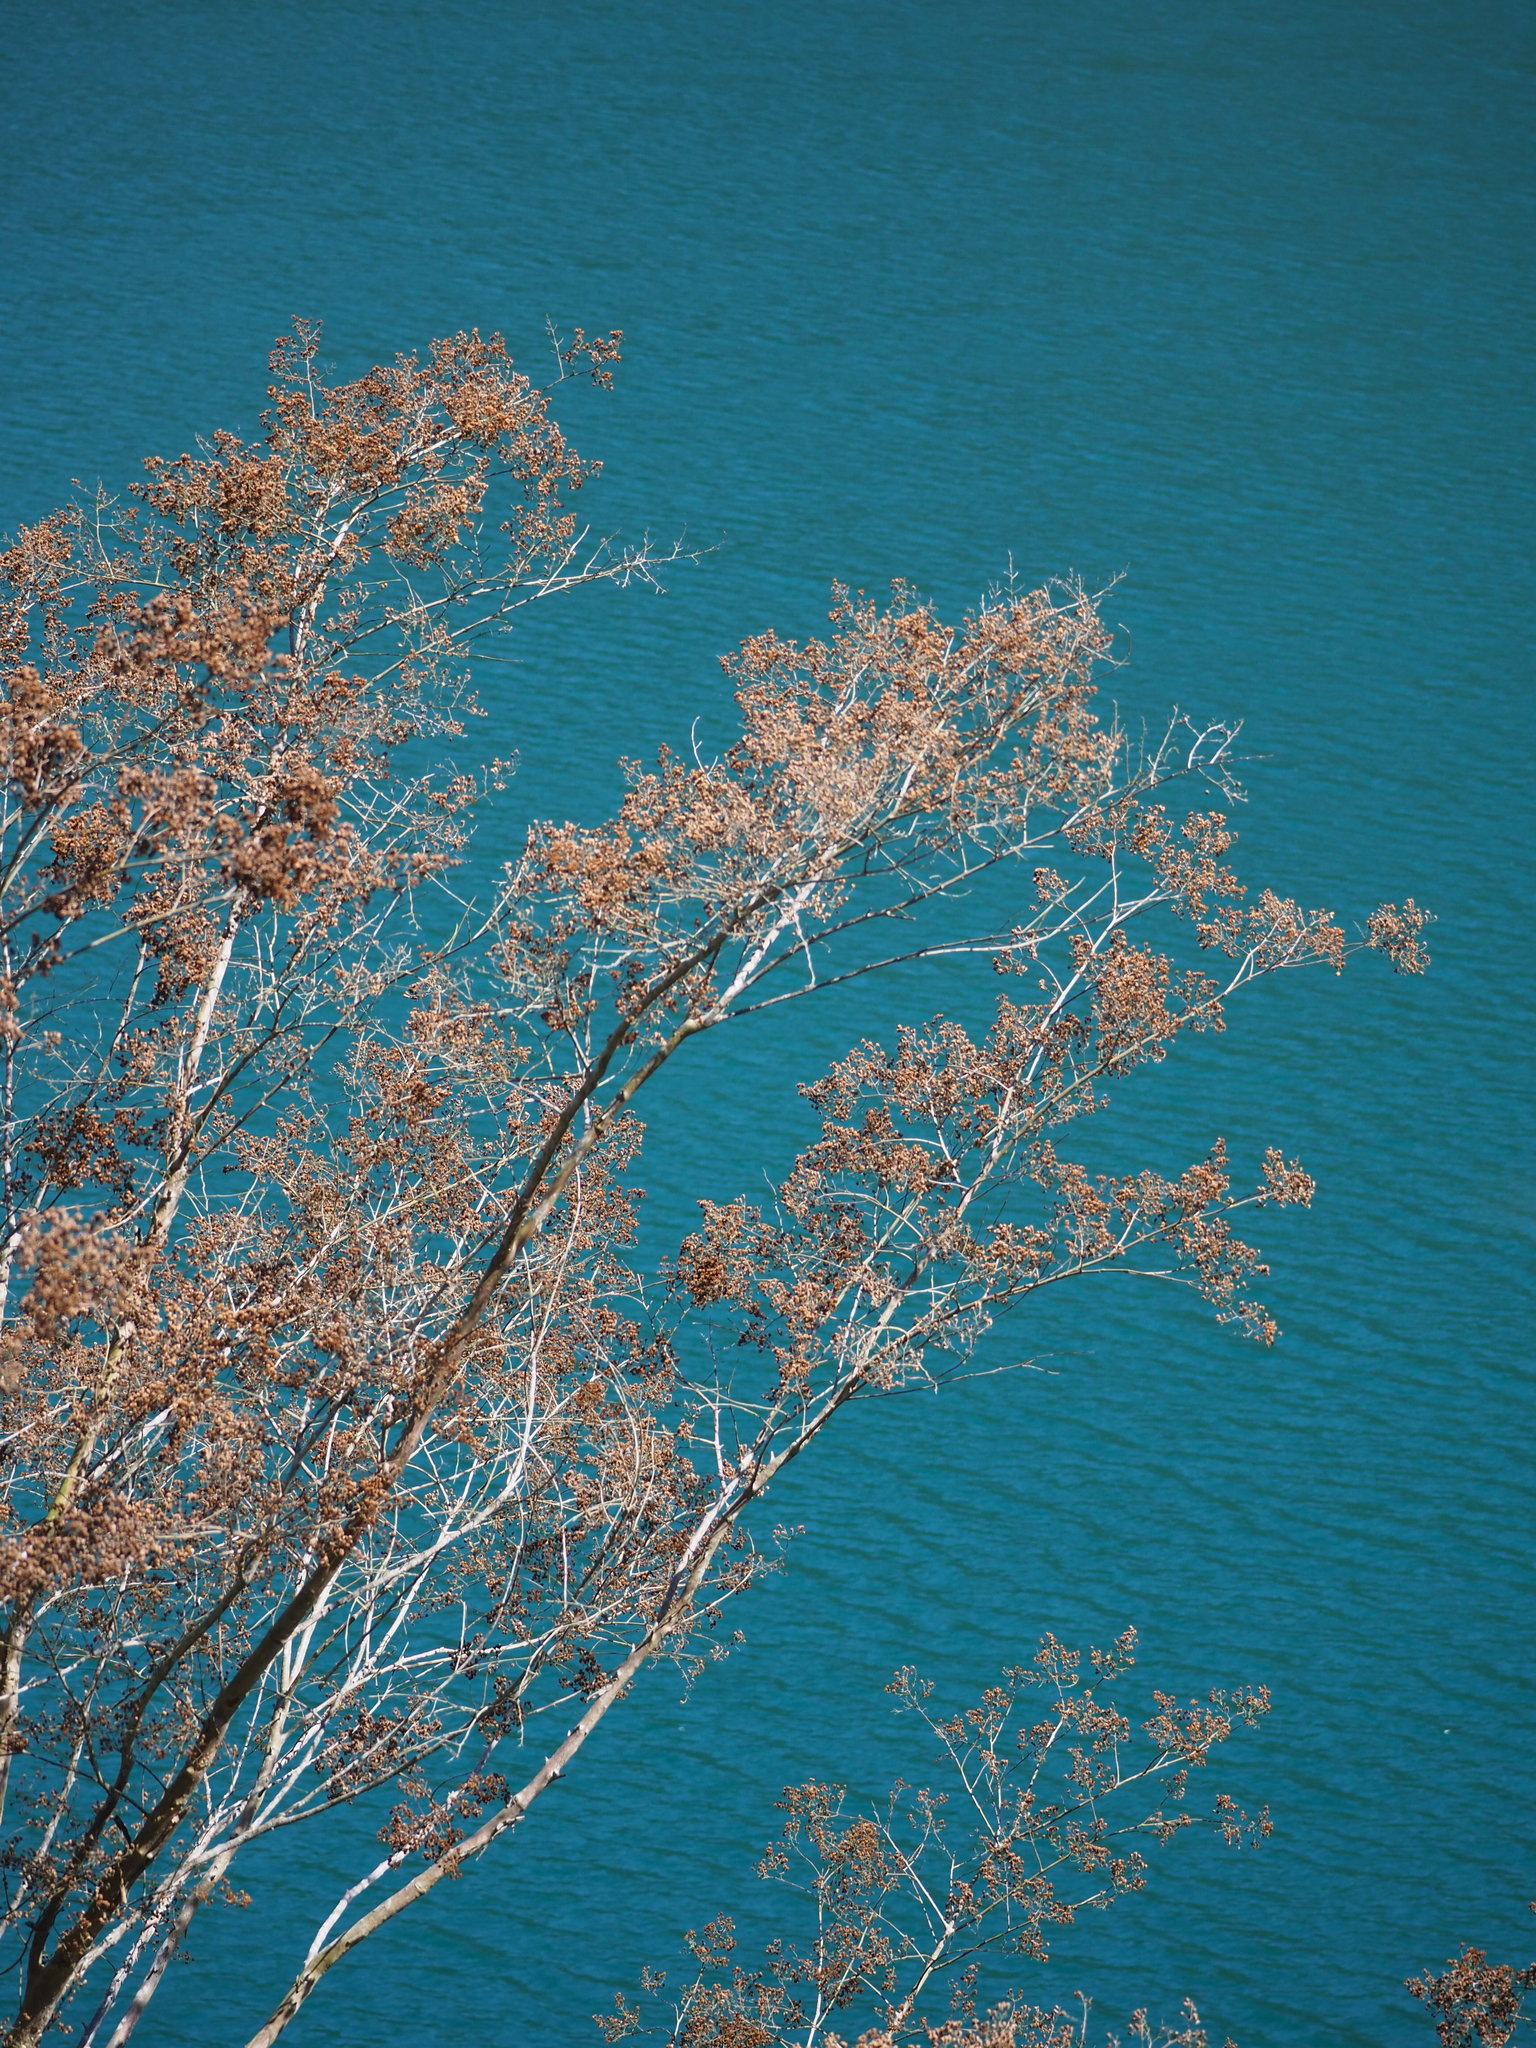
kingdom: Plantae
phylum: Tracheophyta
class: Magnoliopsida
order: Myrtales
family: Lythraceae
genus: Lagerstroemia
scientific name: Lagerstroemia subcostata
